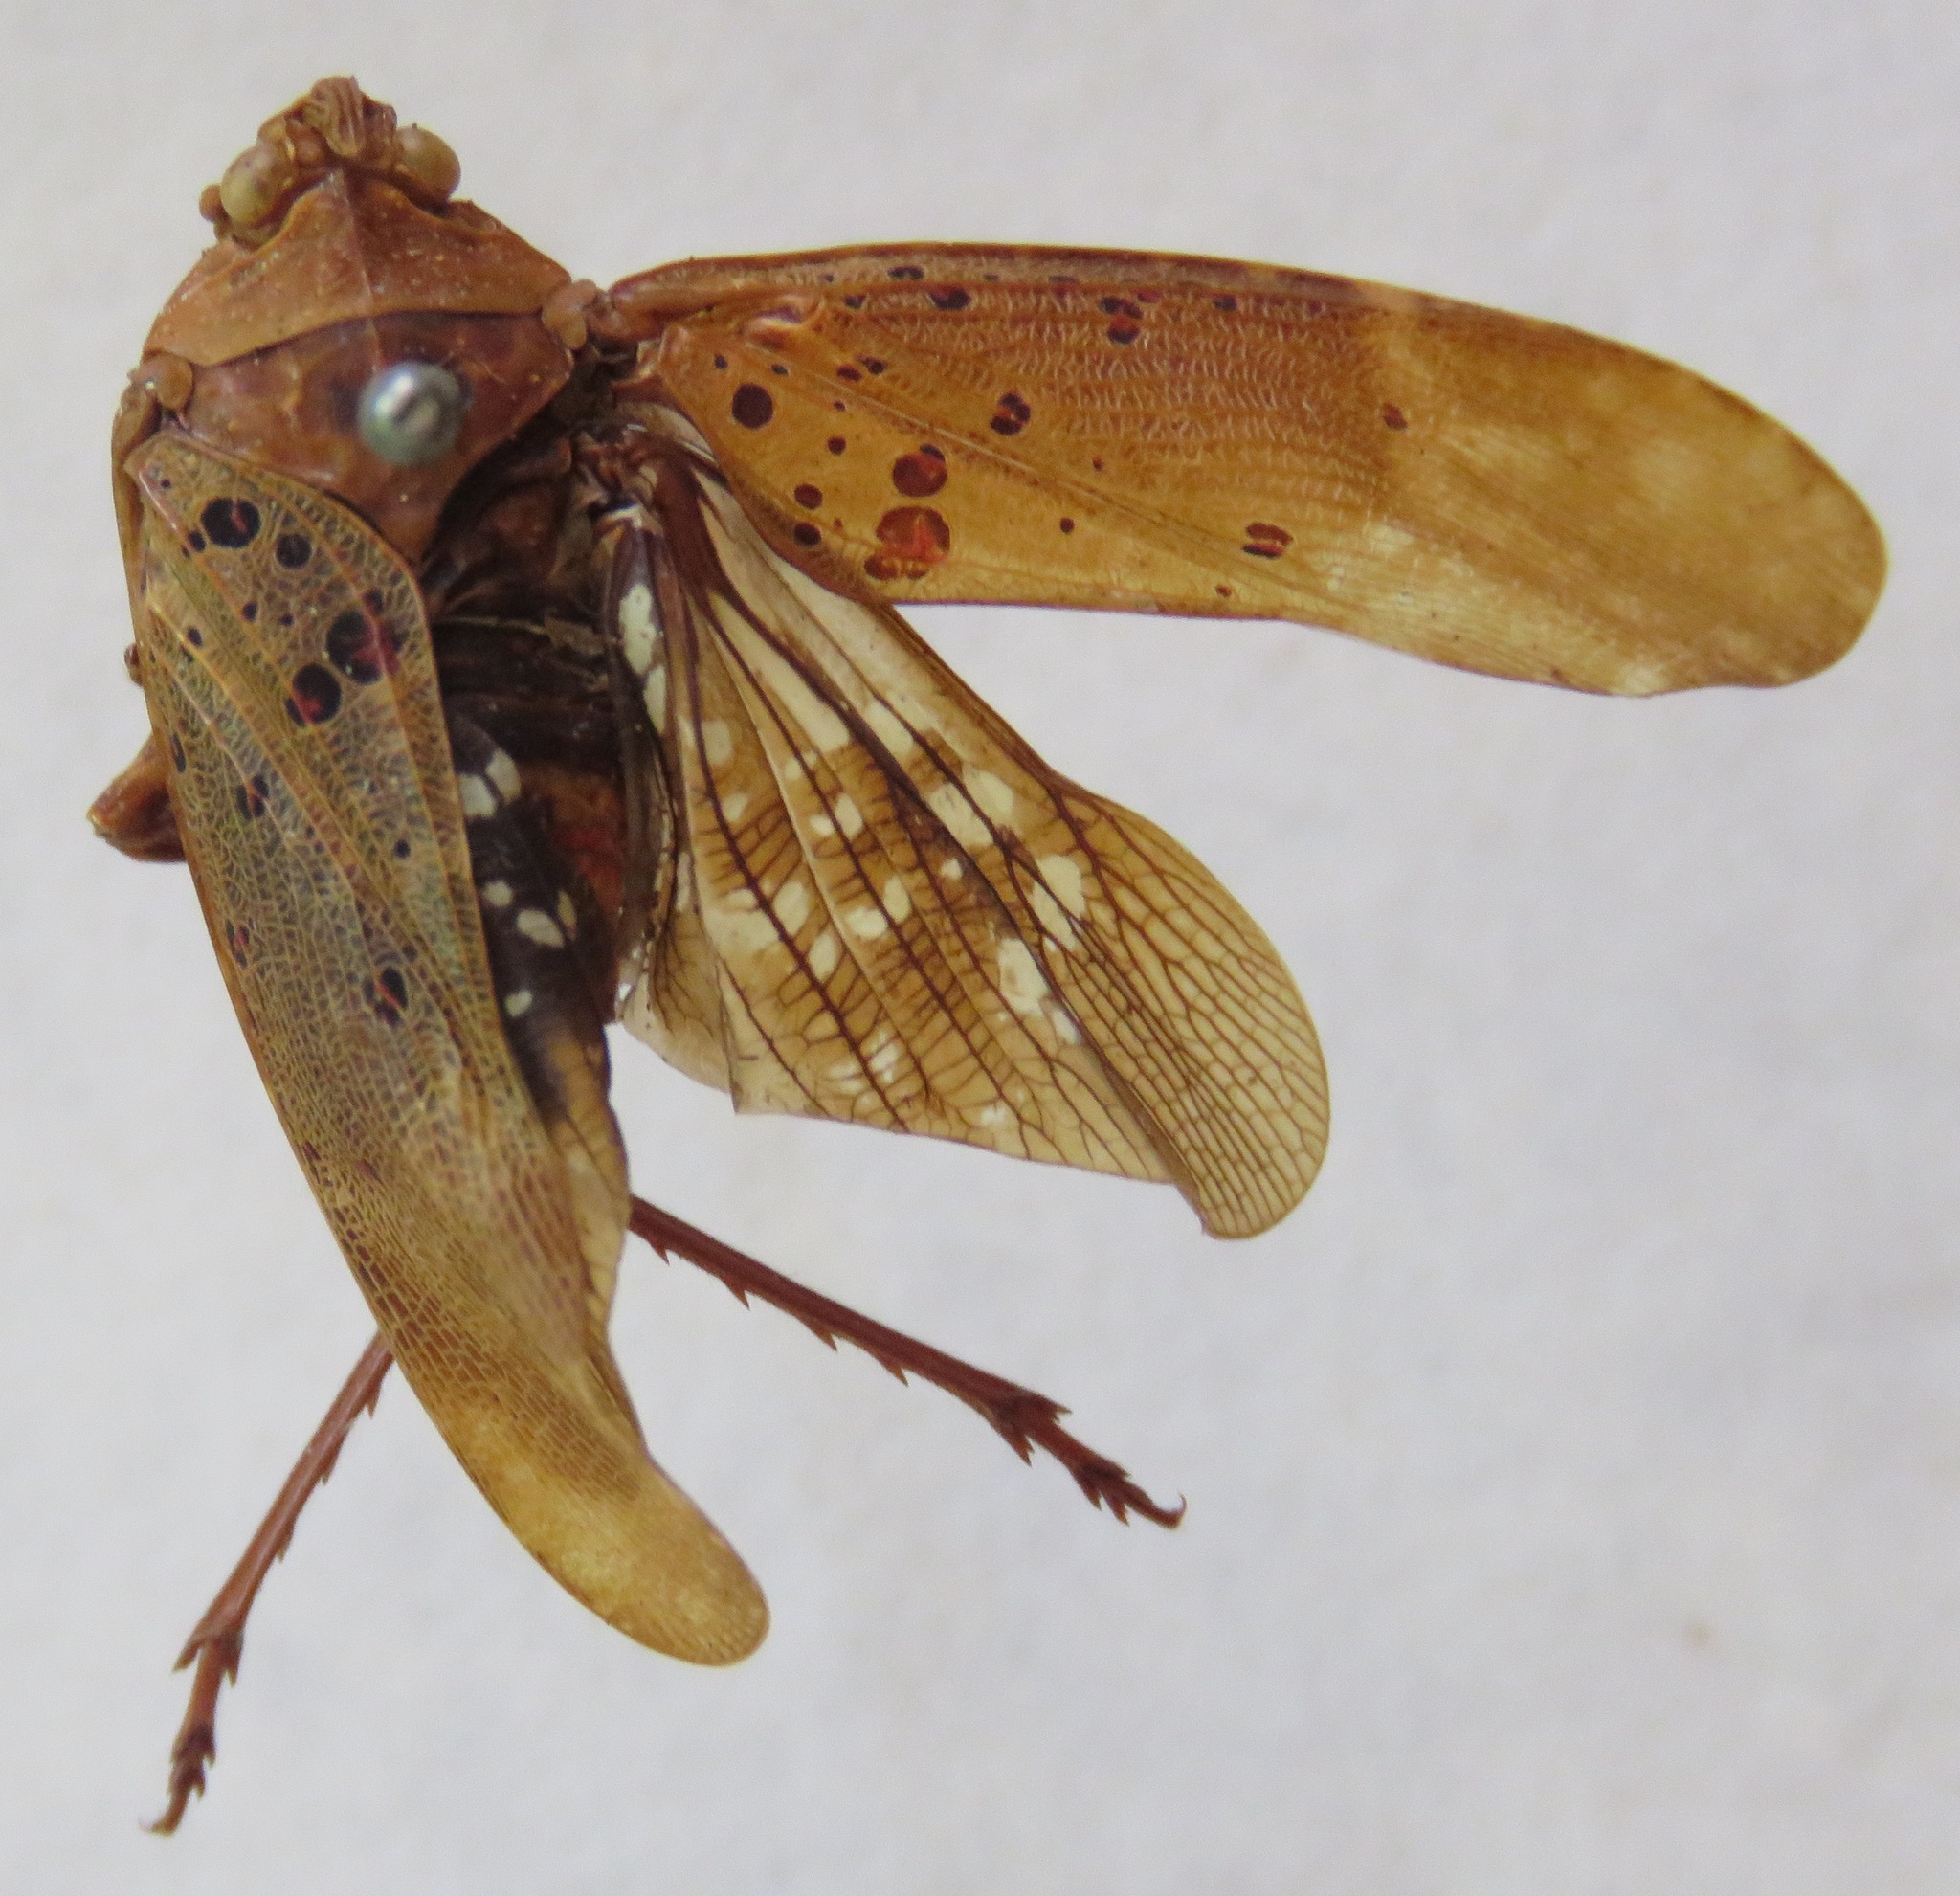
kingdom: Animalia
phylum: Arthropoda
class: Insecta
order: Hemiptera
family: Fulgoridae
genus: Copidocephala
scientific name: Copidocephala viridiguttata
